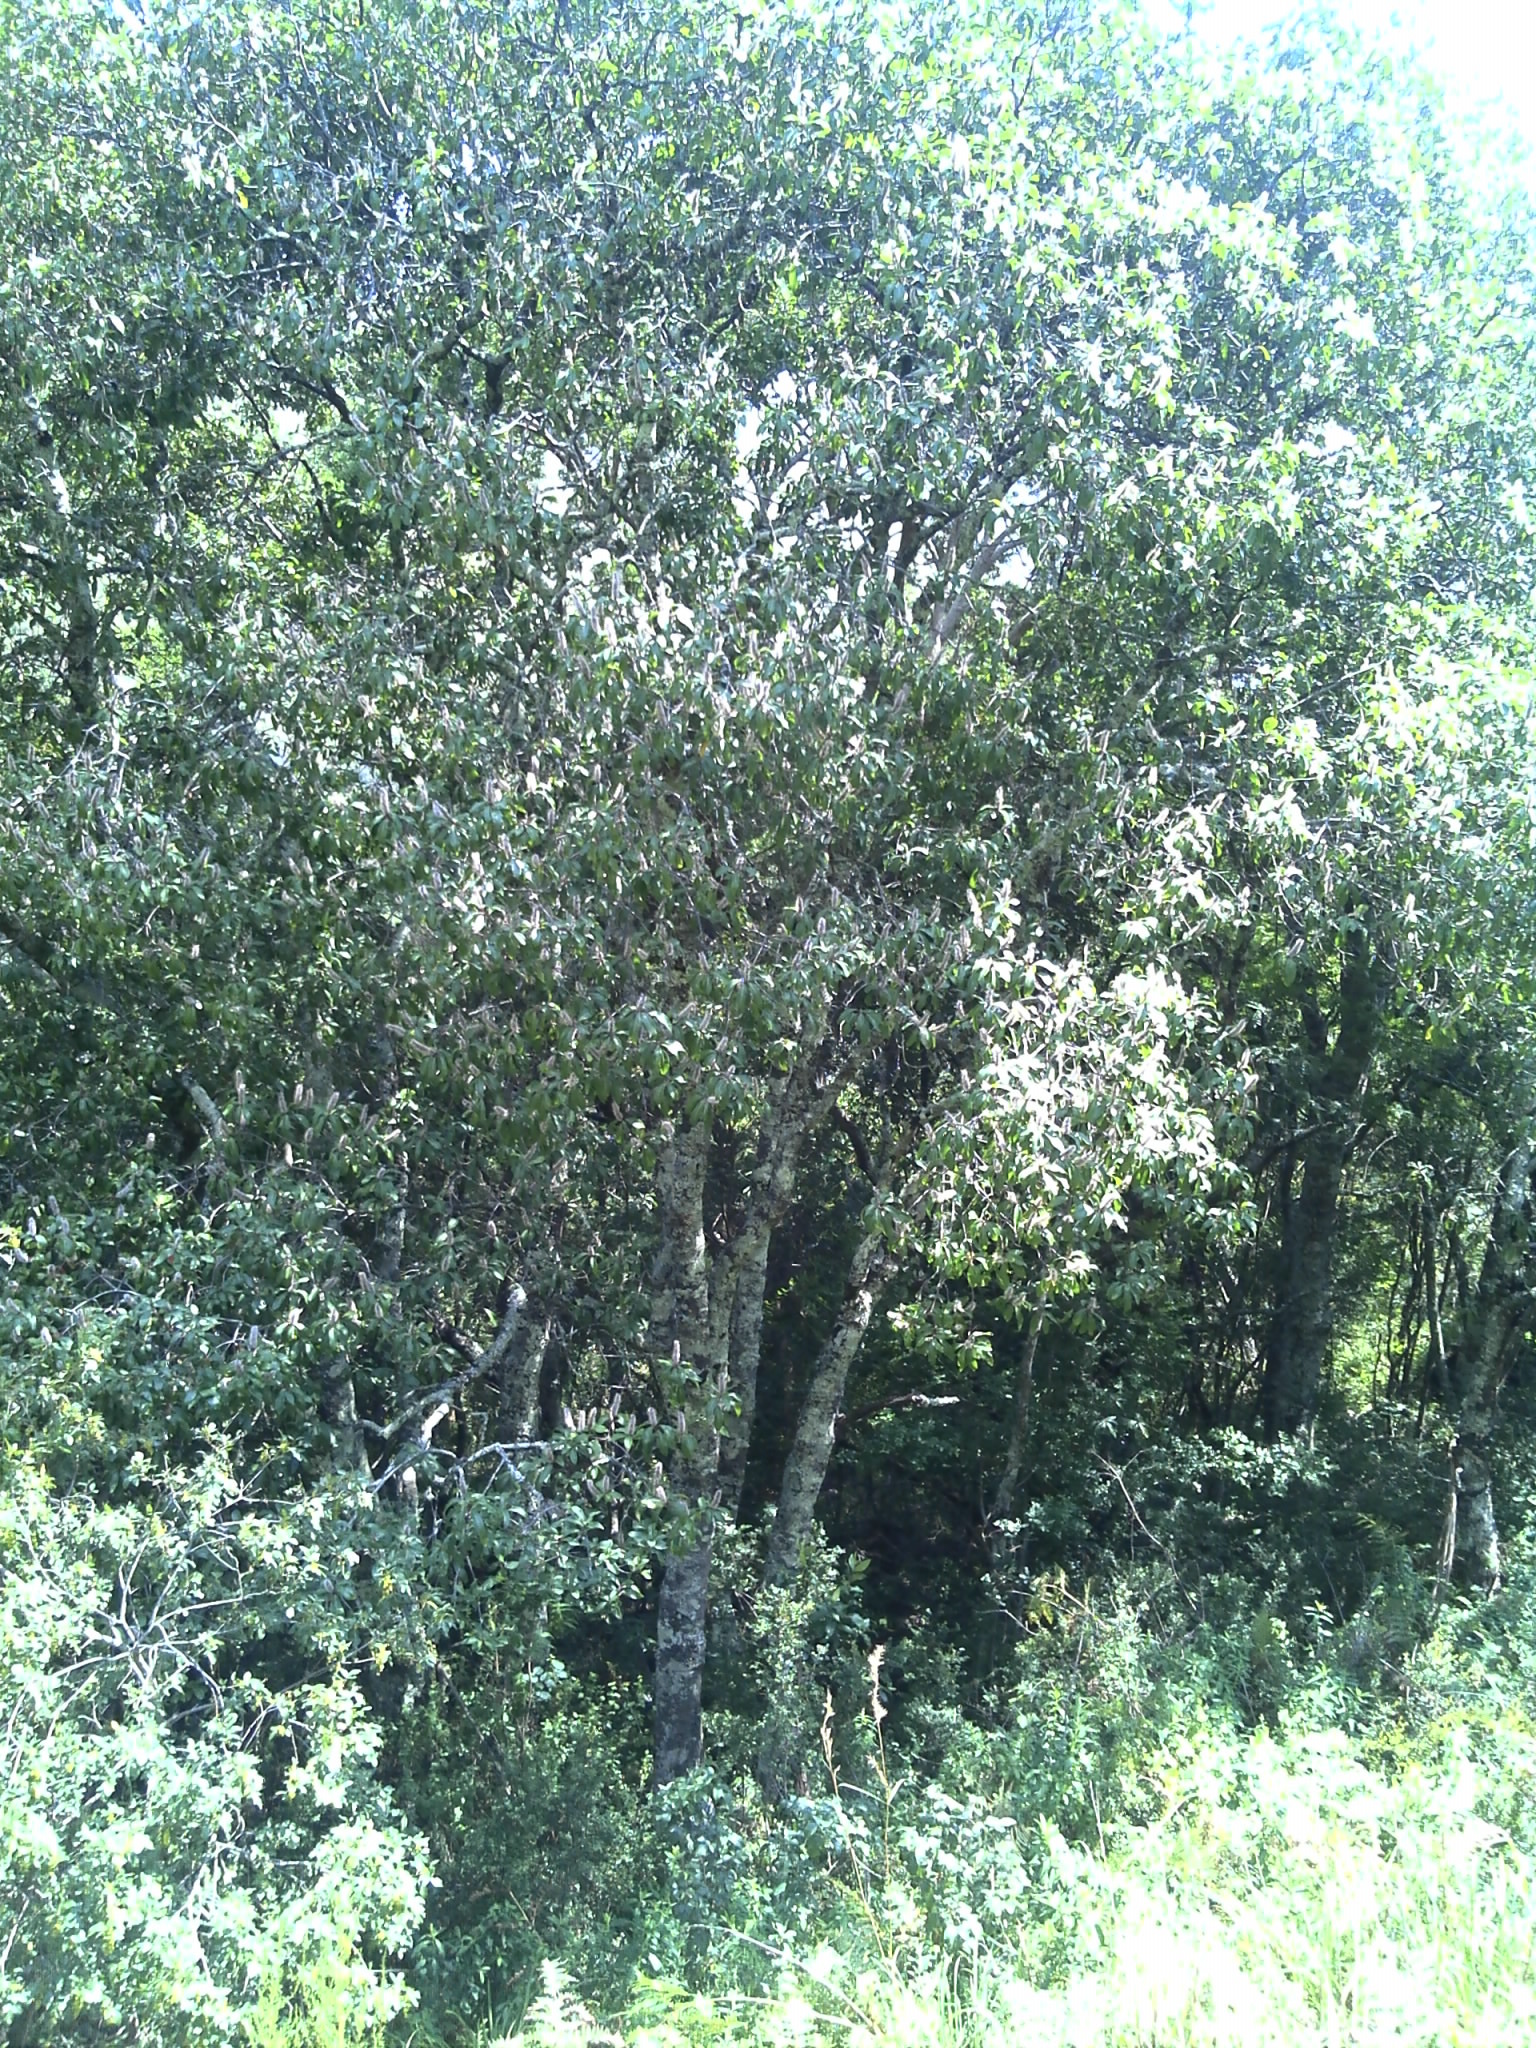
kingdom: Plantae
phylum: Tracheophyta
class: Magnoliopsida
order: Proteales
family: Proteaceae
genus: Faurea
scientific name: Faurea galpinii
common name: Bush beech
